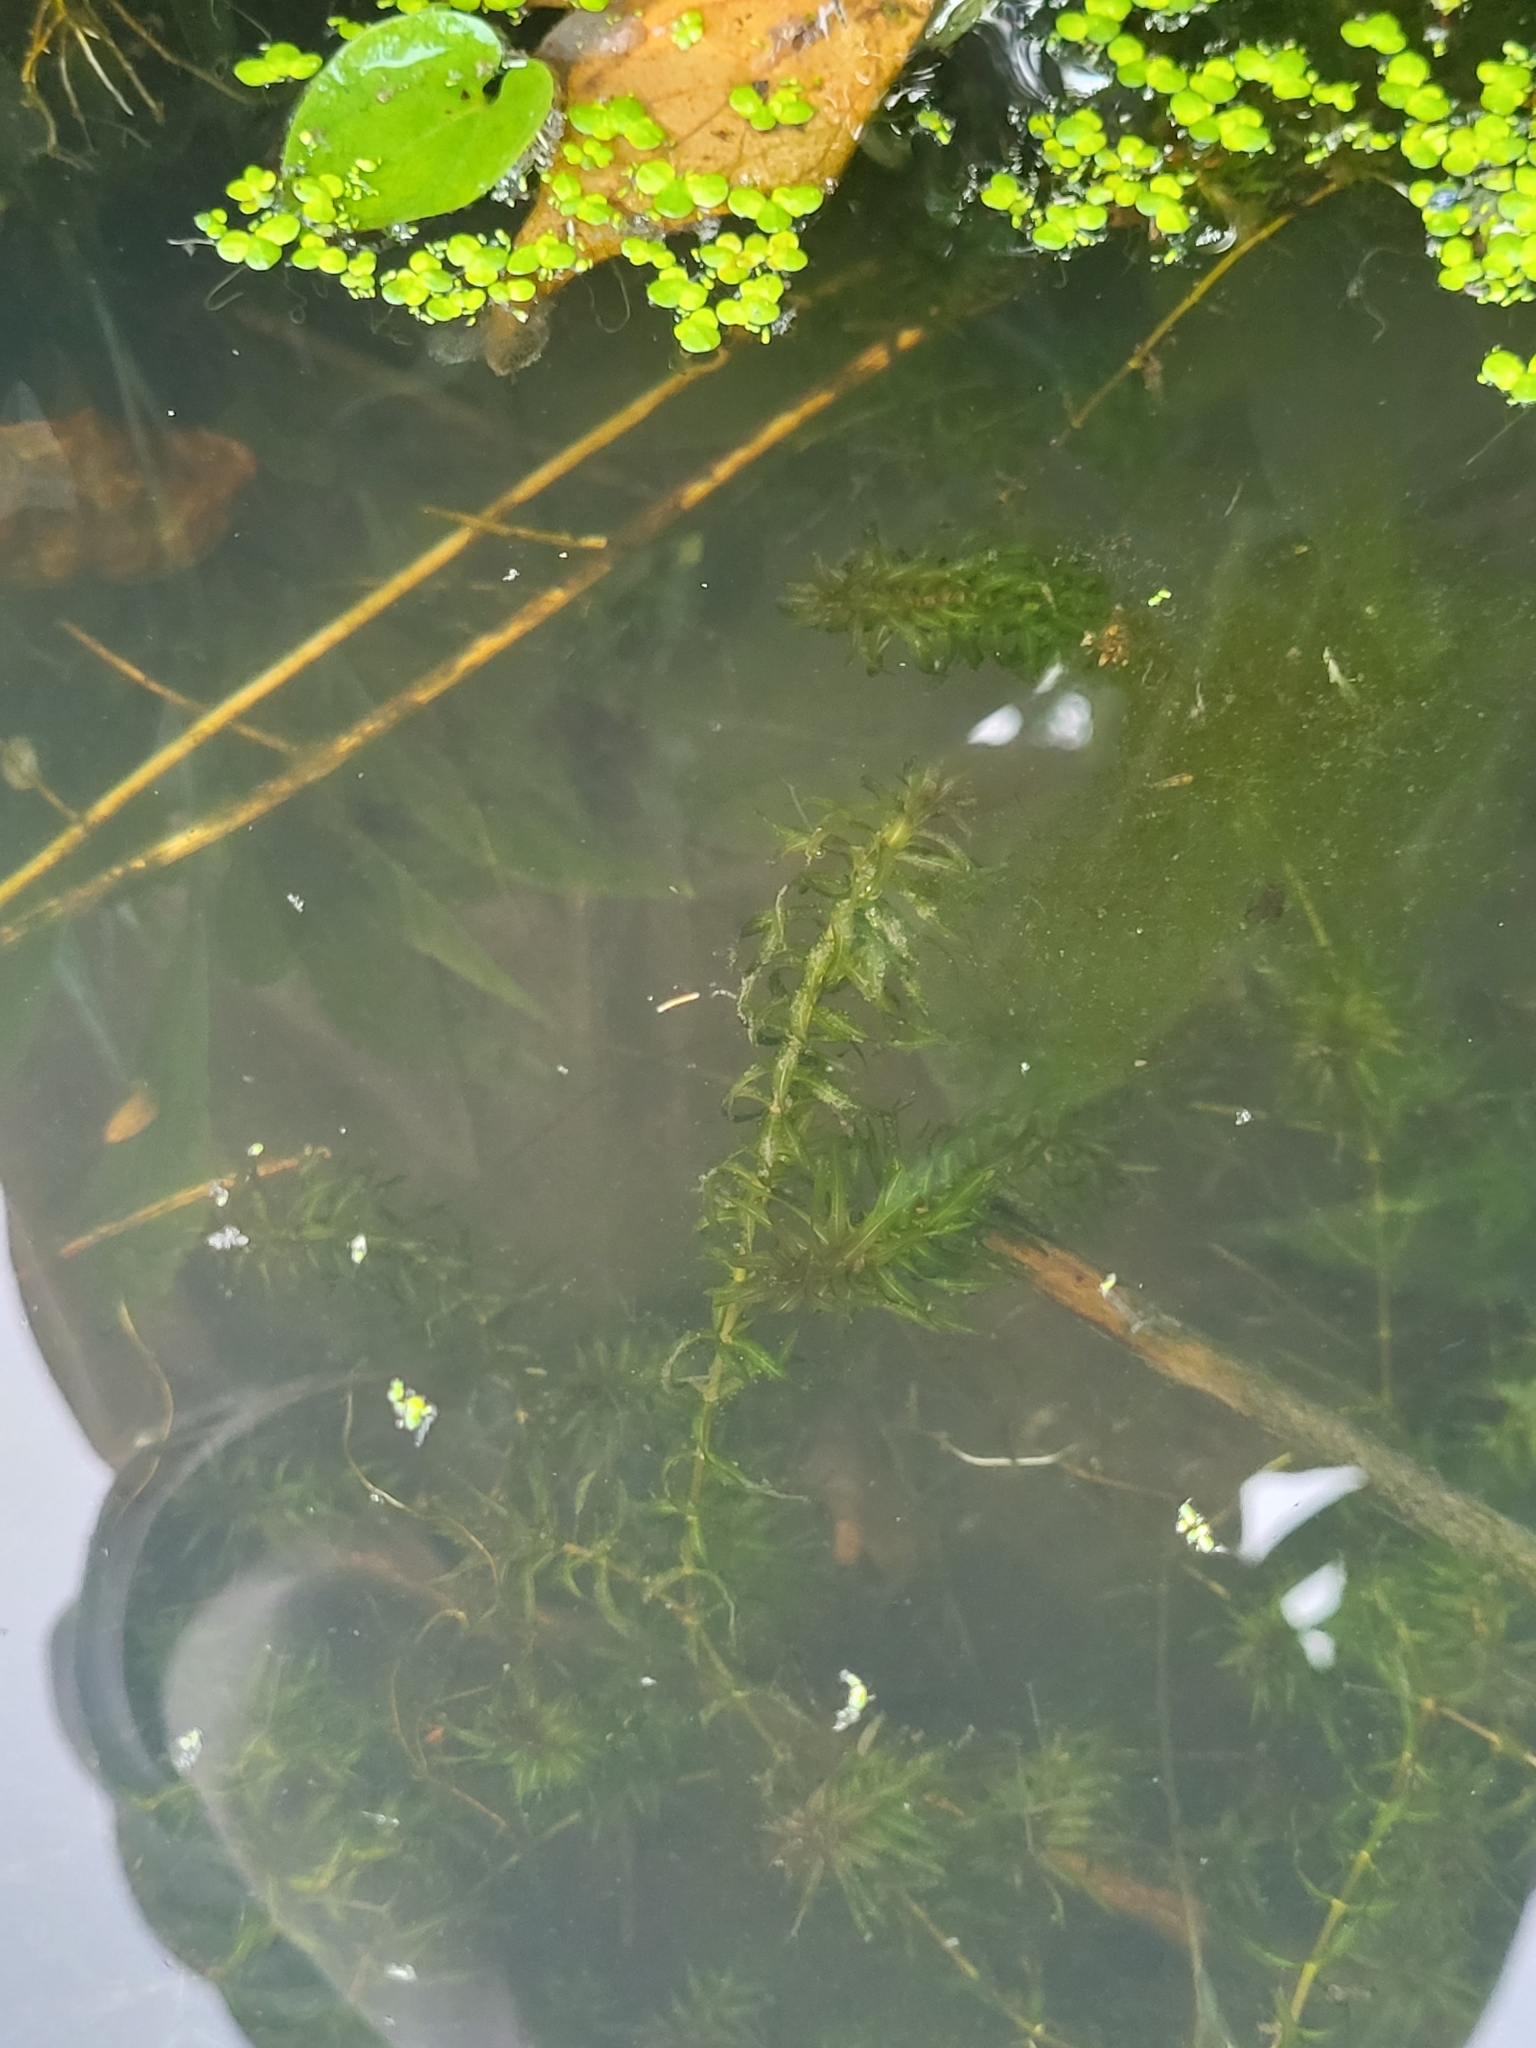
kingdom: Plantae
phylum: Tracheophyta
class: Liliopsida
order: Alismatales
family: Hydrocharitaceae
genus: Elodea
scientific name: Elodea nuttallii
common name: Nuttall's waterweed
